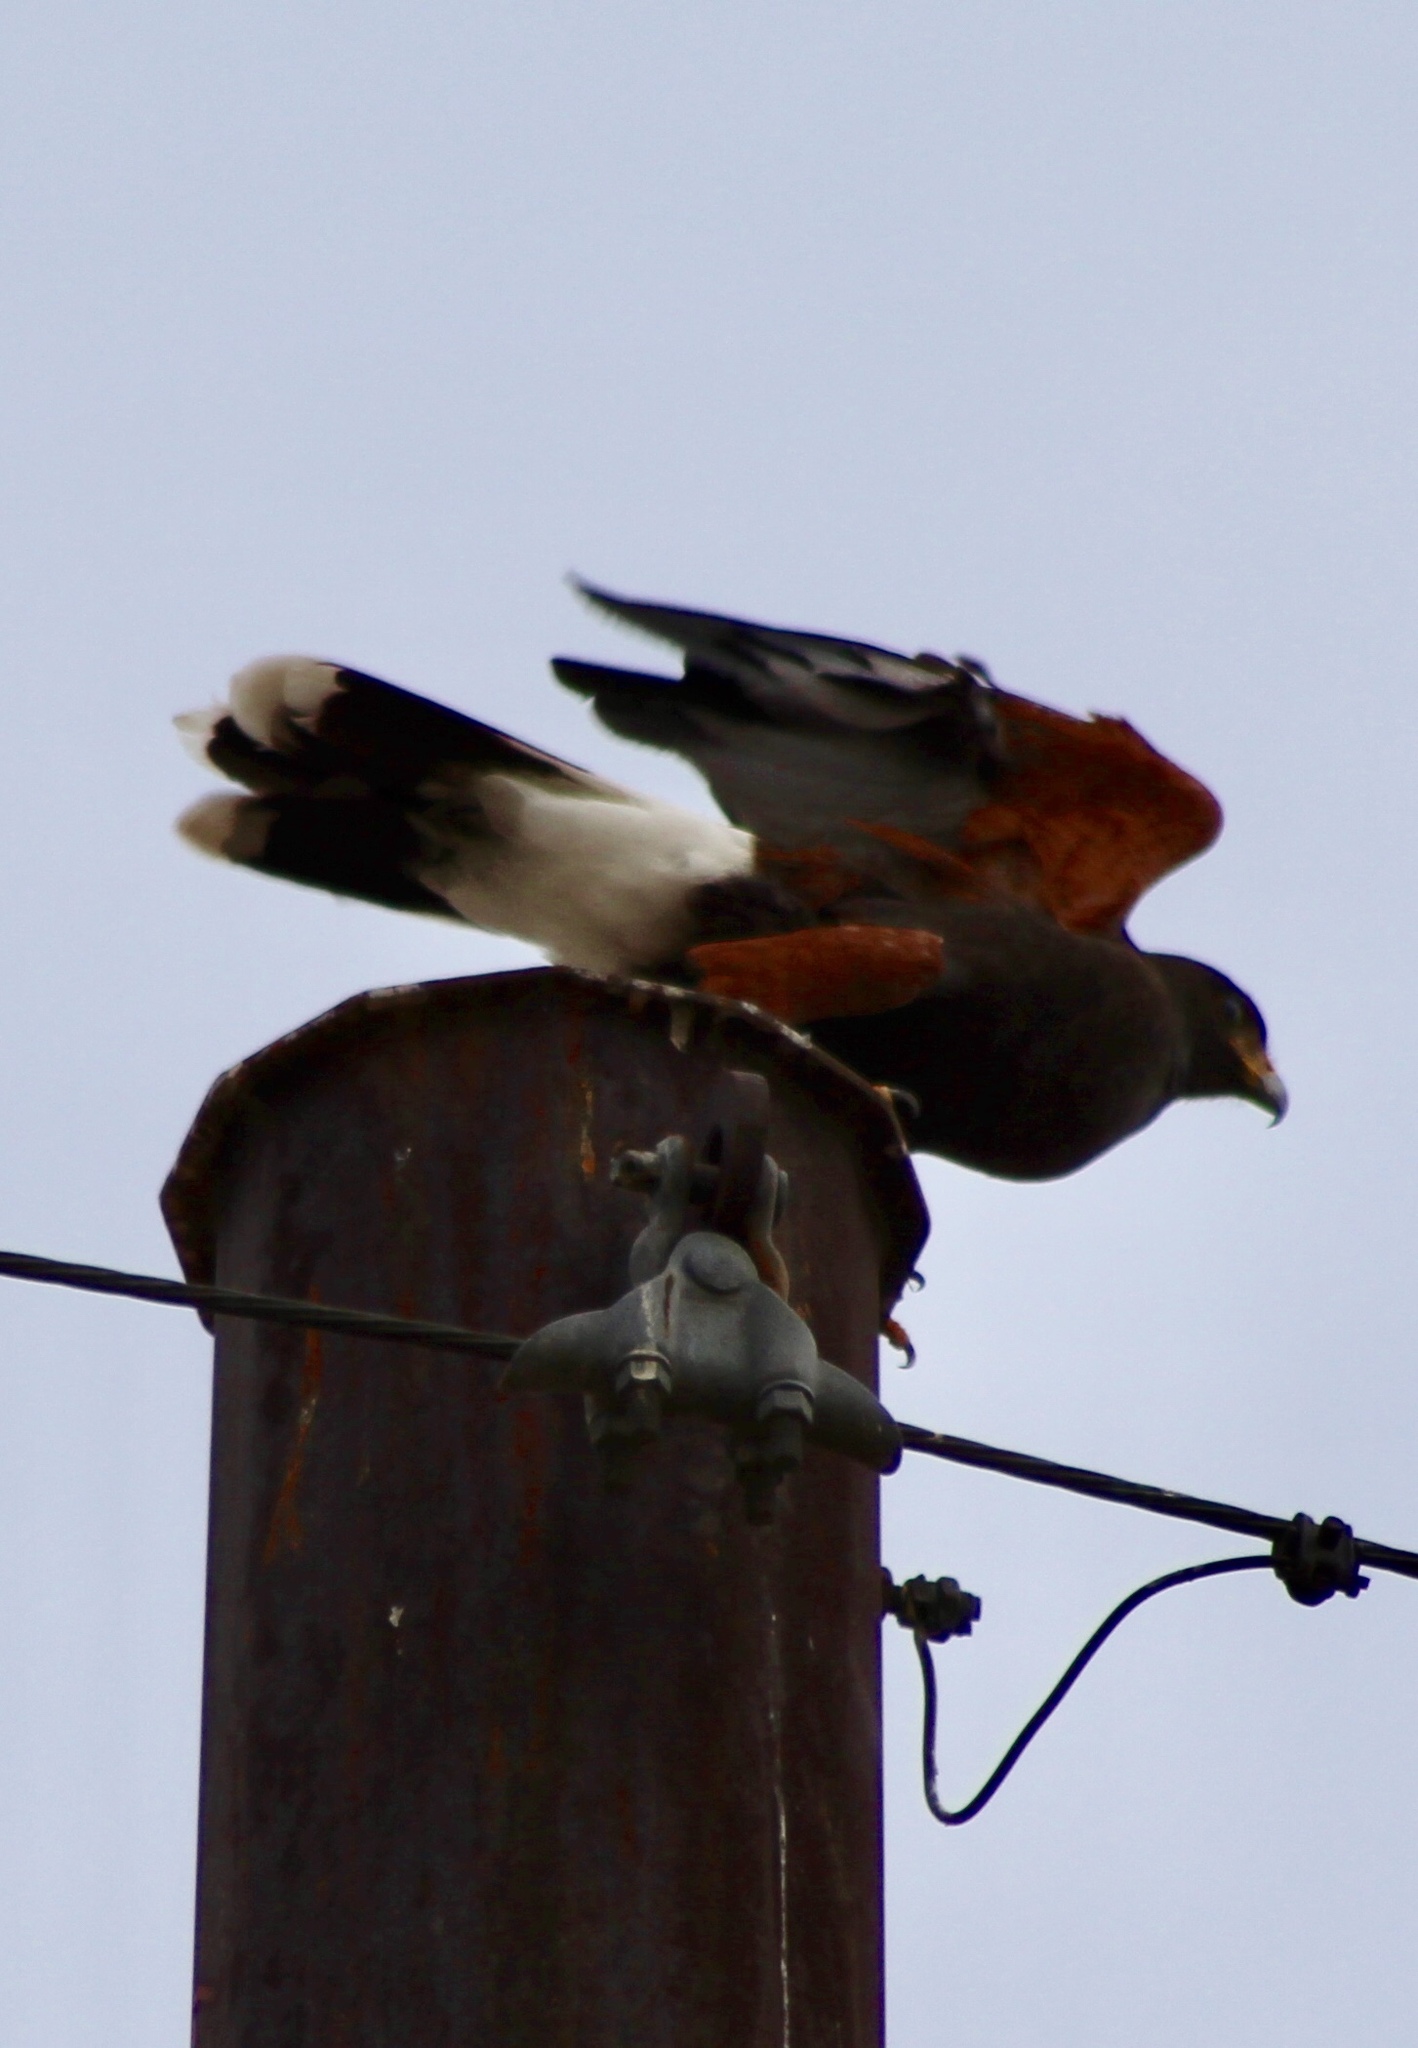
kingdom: Animalia
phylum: Chordata
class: Aves
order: Accipitriformes
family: Accipitridae
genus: Parabuteo
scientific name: Parabuteo unicinctus
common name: Harris's hawk
